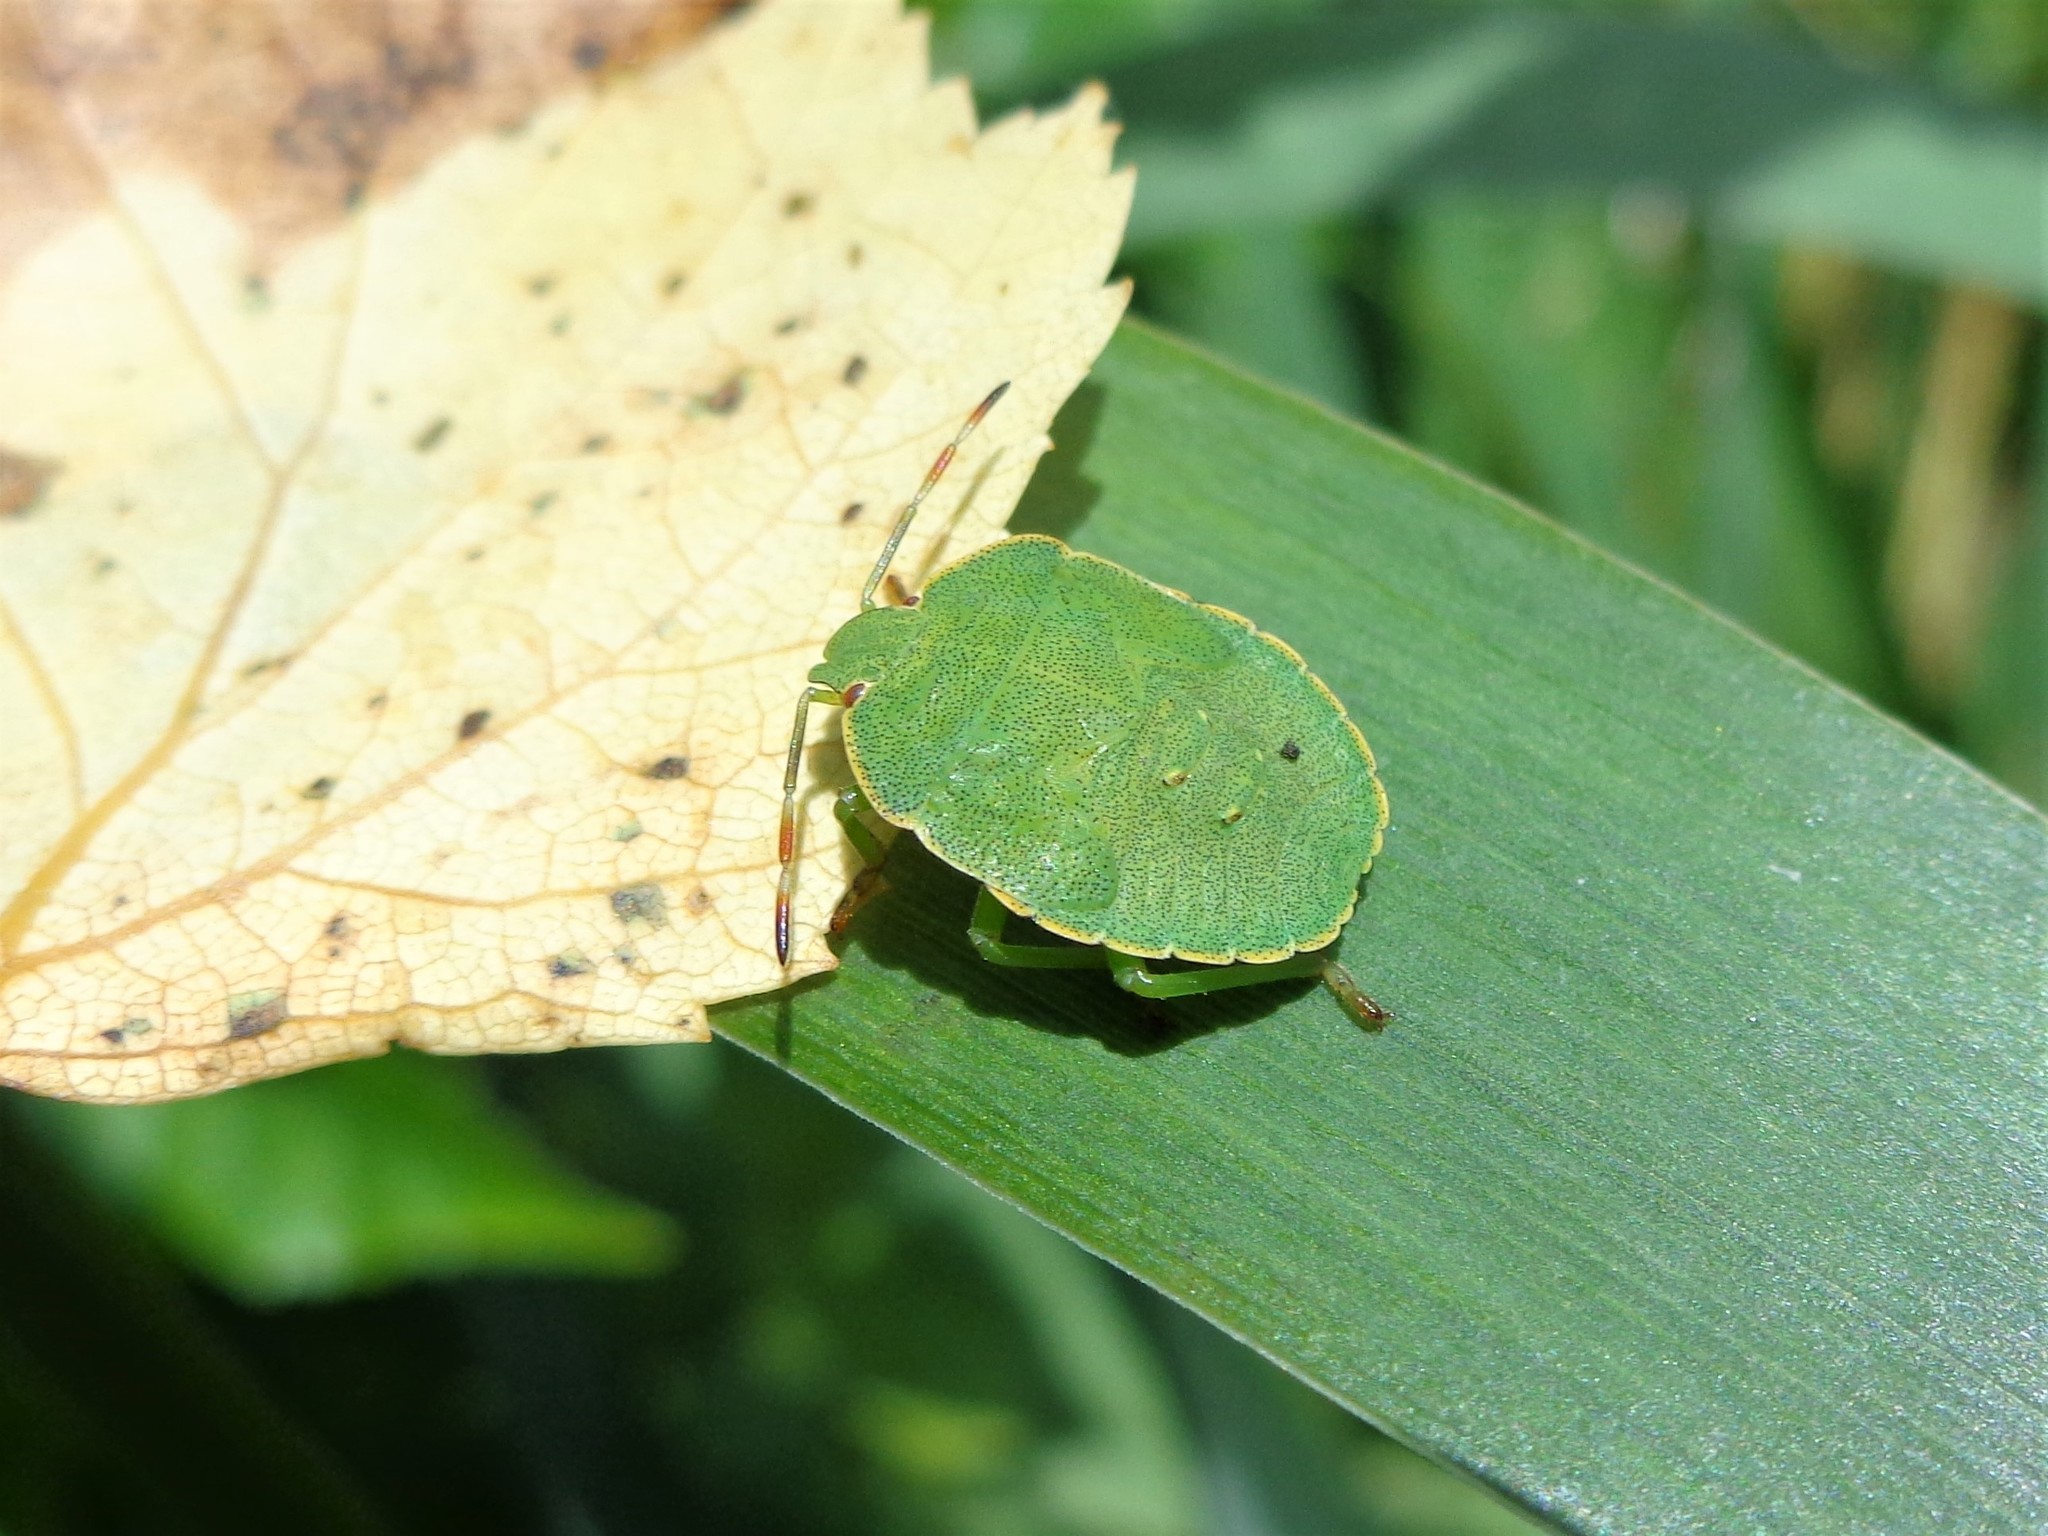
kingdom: Animalia
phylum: Arthropoda
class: Insecta
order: Hemiptera
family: Pentatomidae
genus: Palomena
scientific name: Palomena prasina
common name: Green shieldbug
